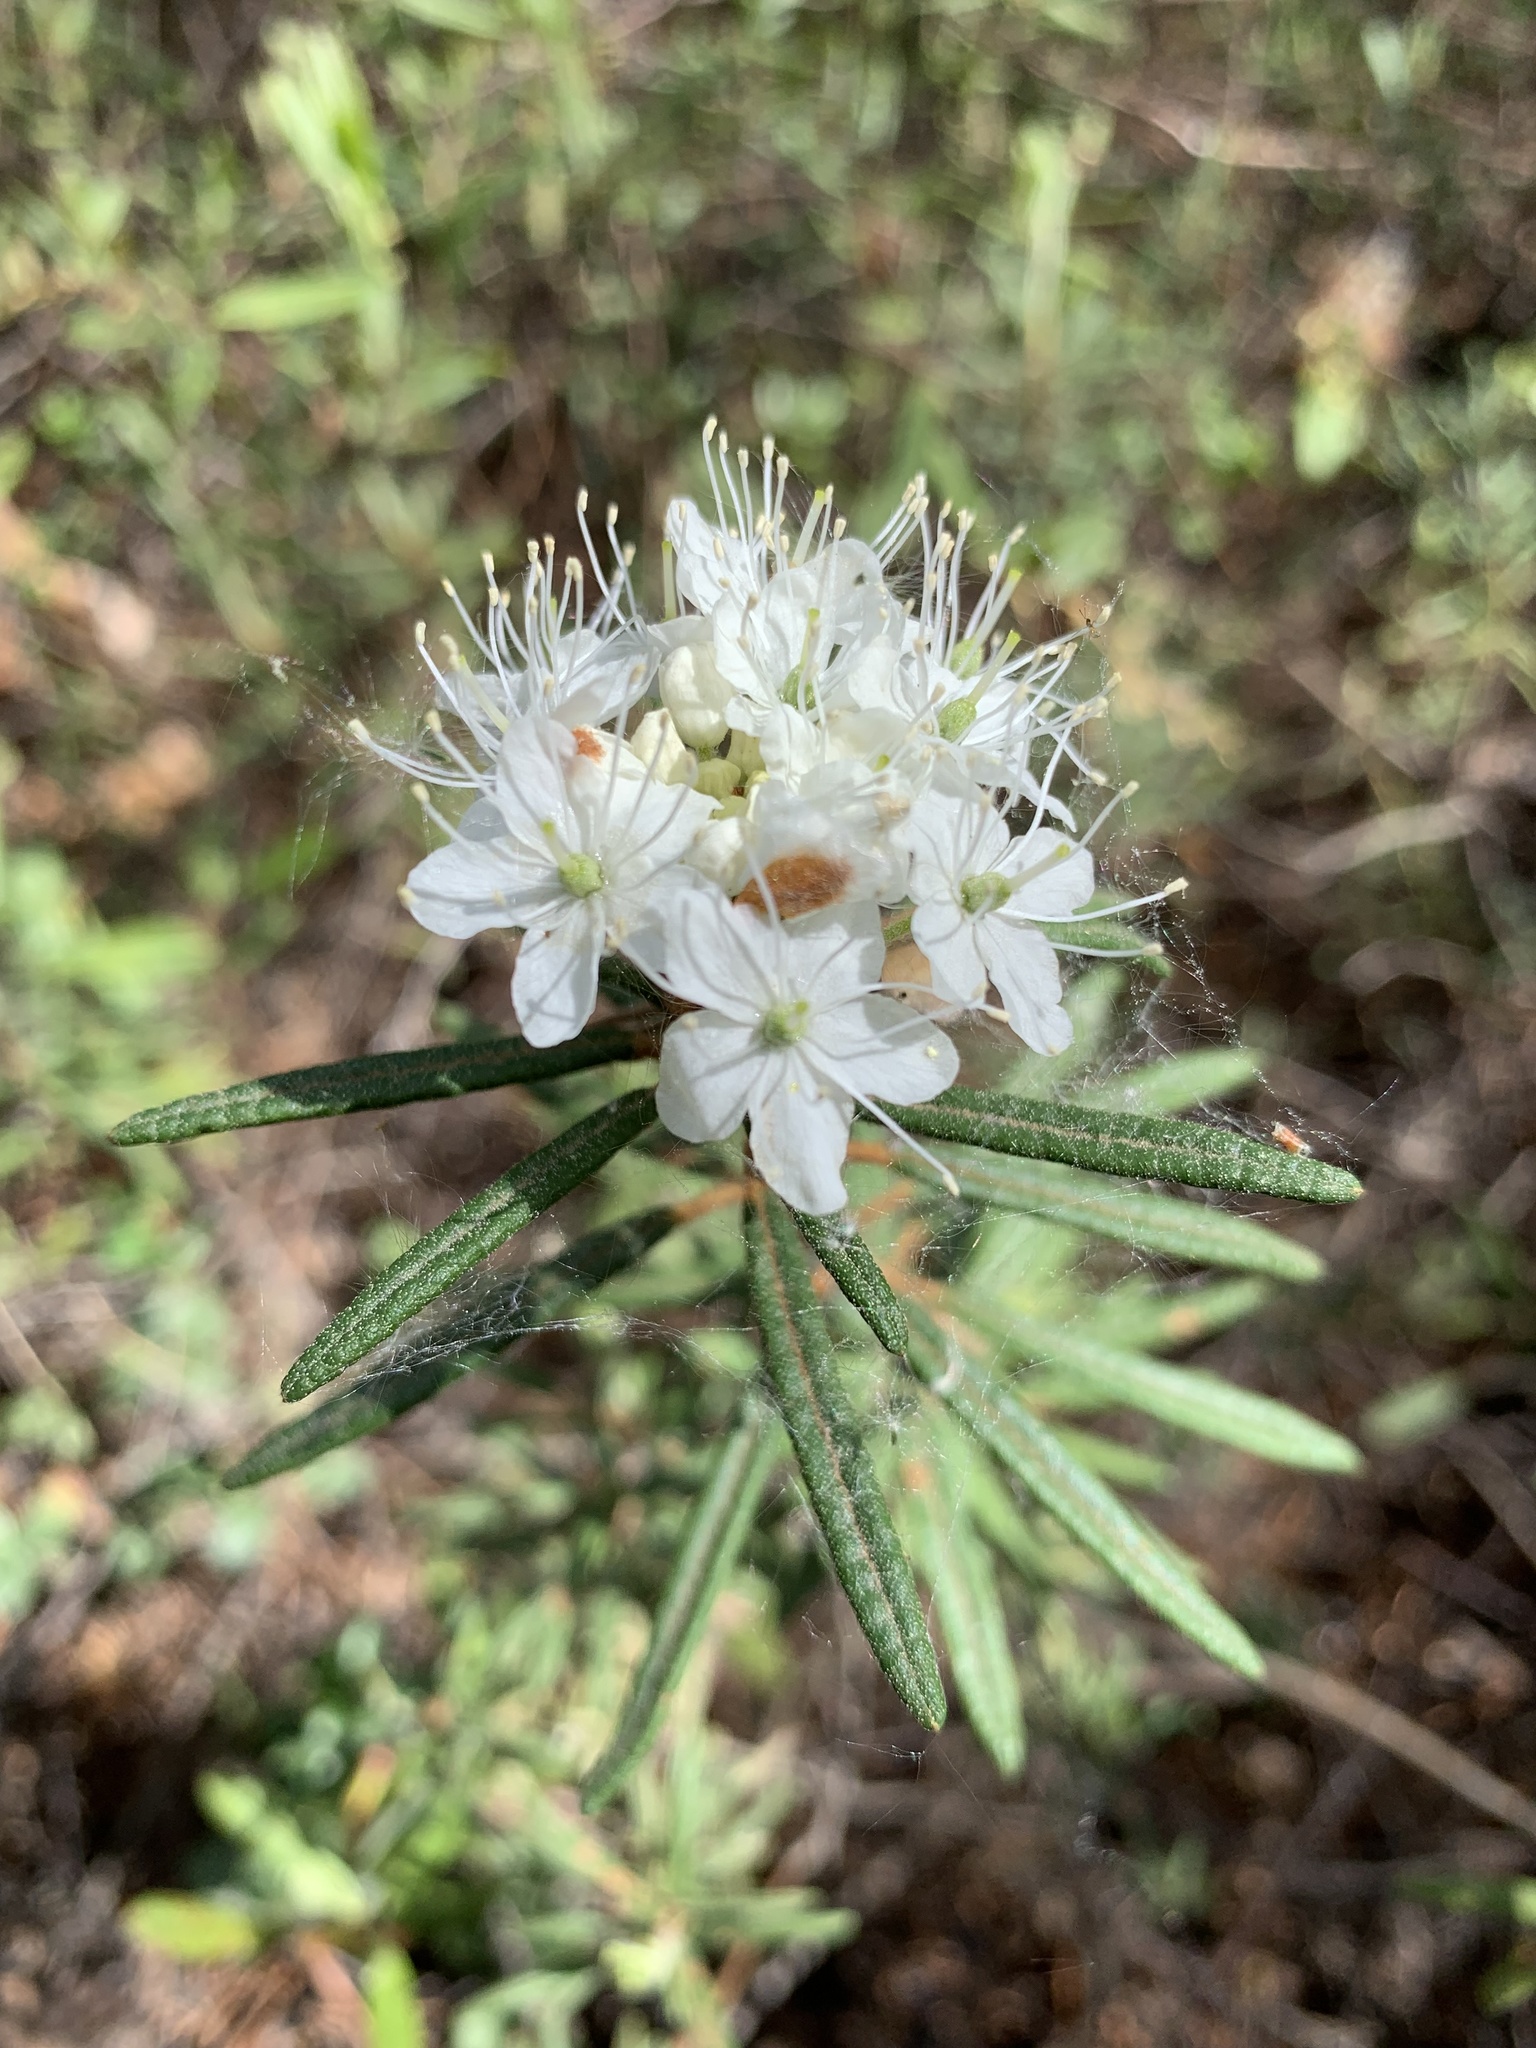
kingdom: Plantae
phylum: Tracheophyta
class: Magnoliopsida
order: Ericales
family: Ericaceae
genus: Rhododendron
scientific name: Rhododendron tomentosum
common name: Marsh labrador tea
